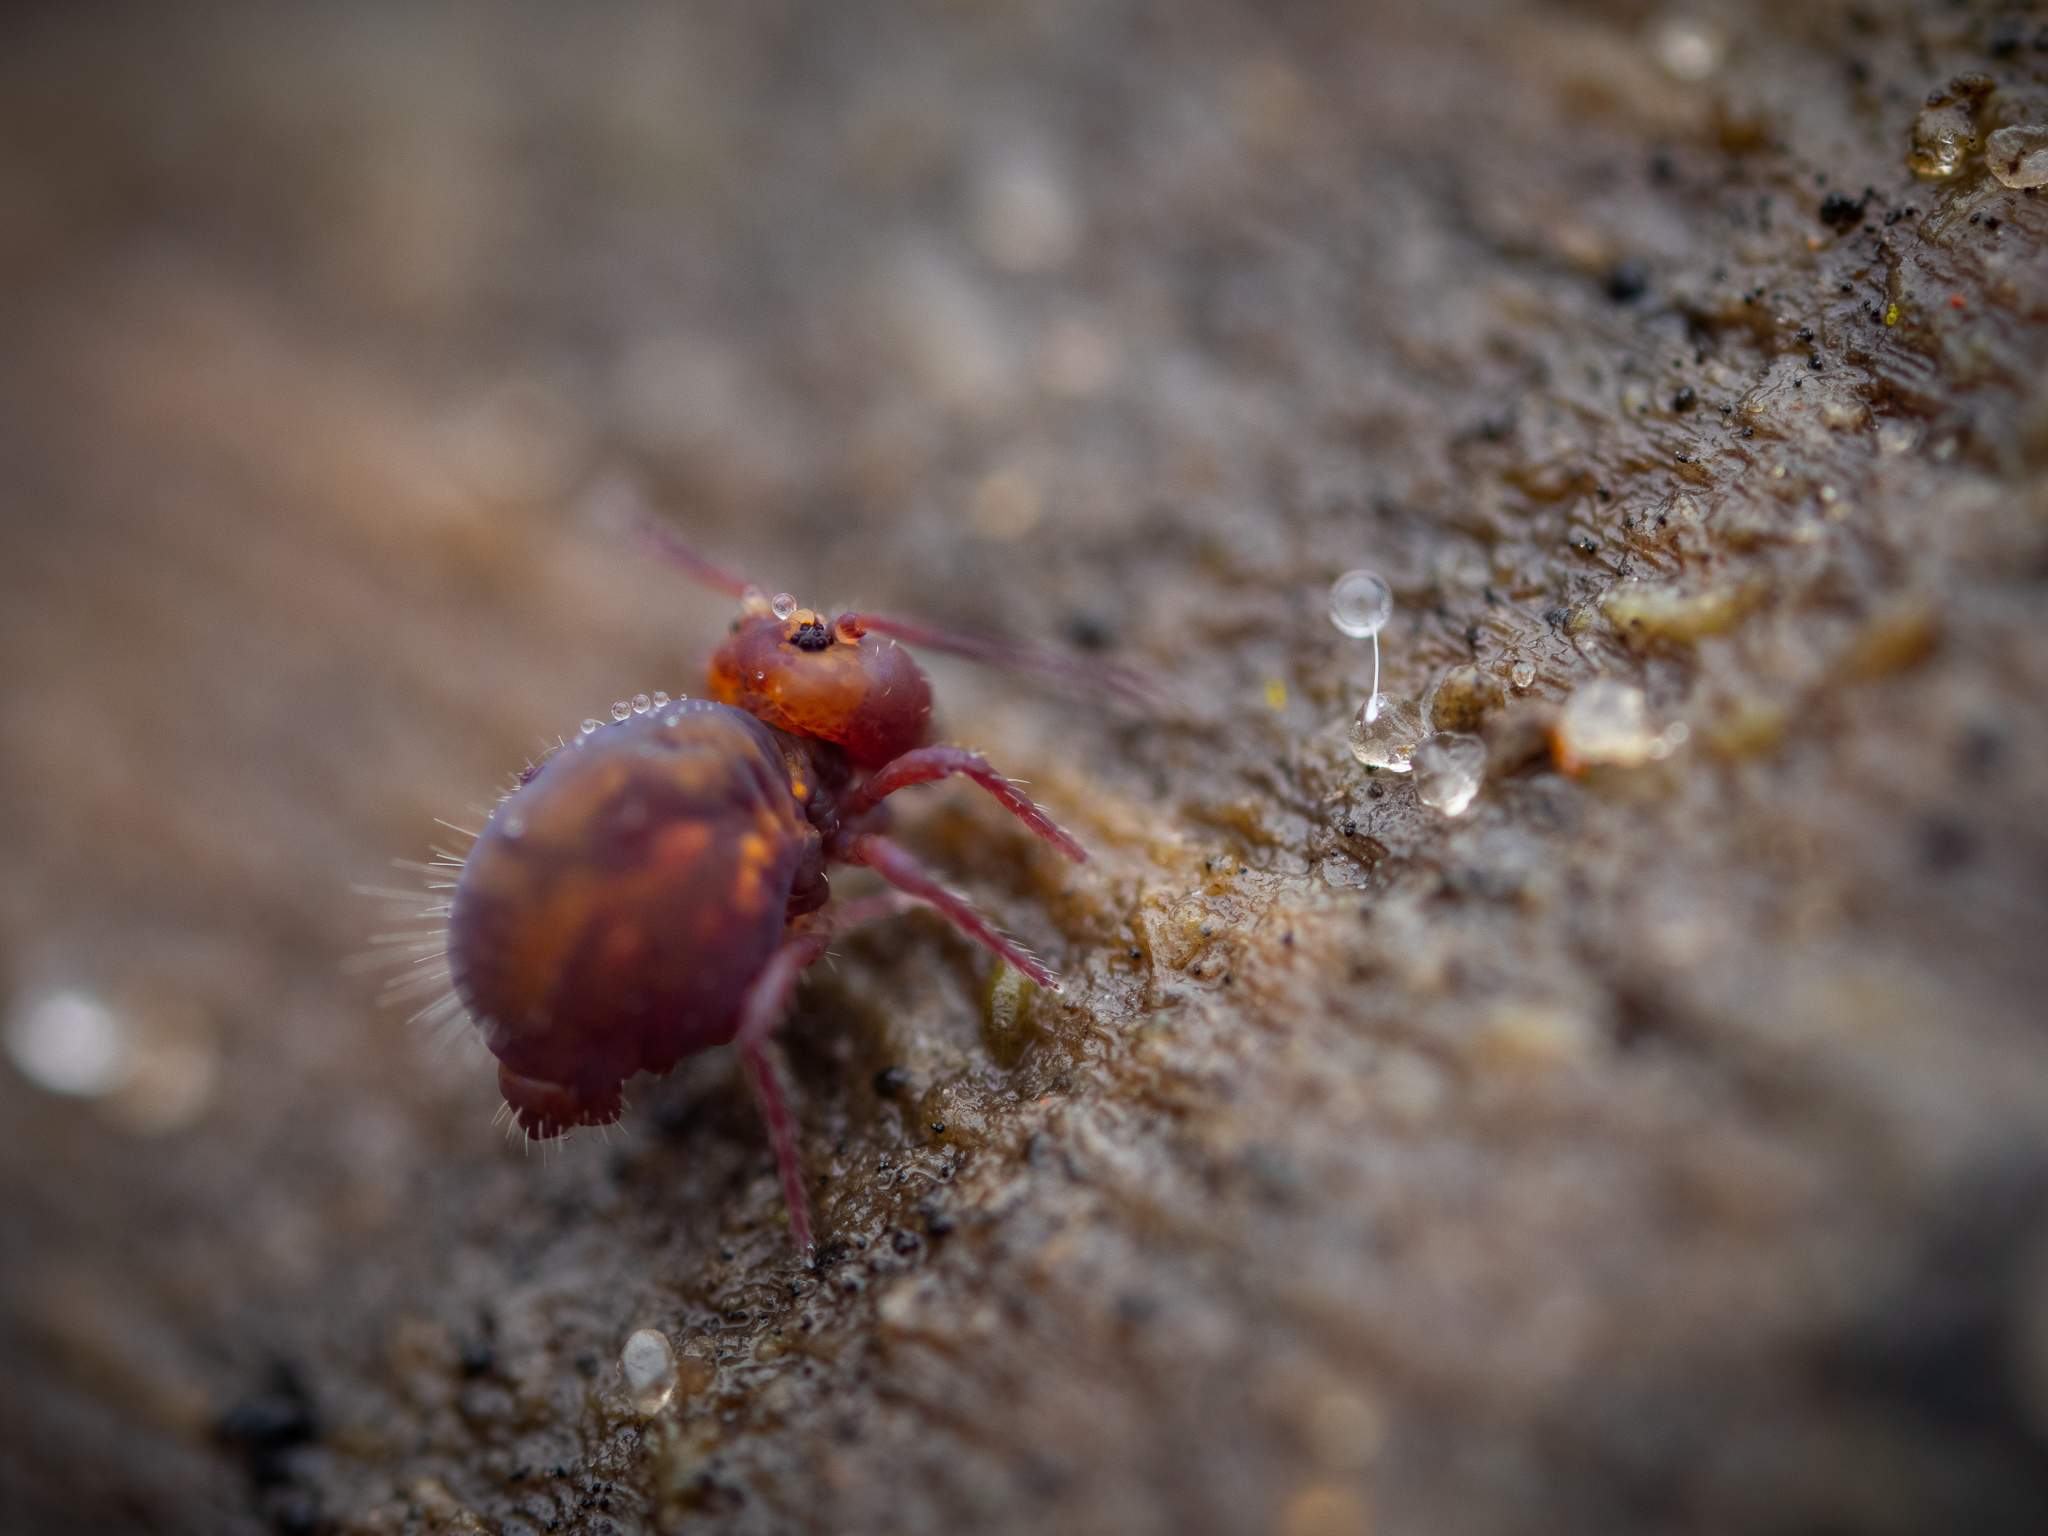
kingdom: Animalia
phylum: Arthropoda
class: Collembola
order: Symphypleona
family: Dicyrtomidae
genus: Dicyrtoma
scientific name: Dicyrtoma fusca
